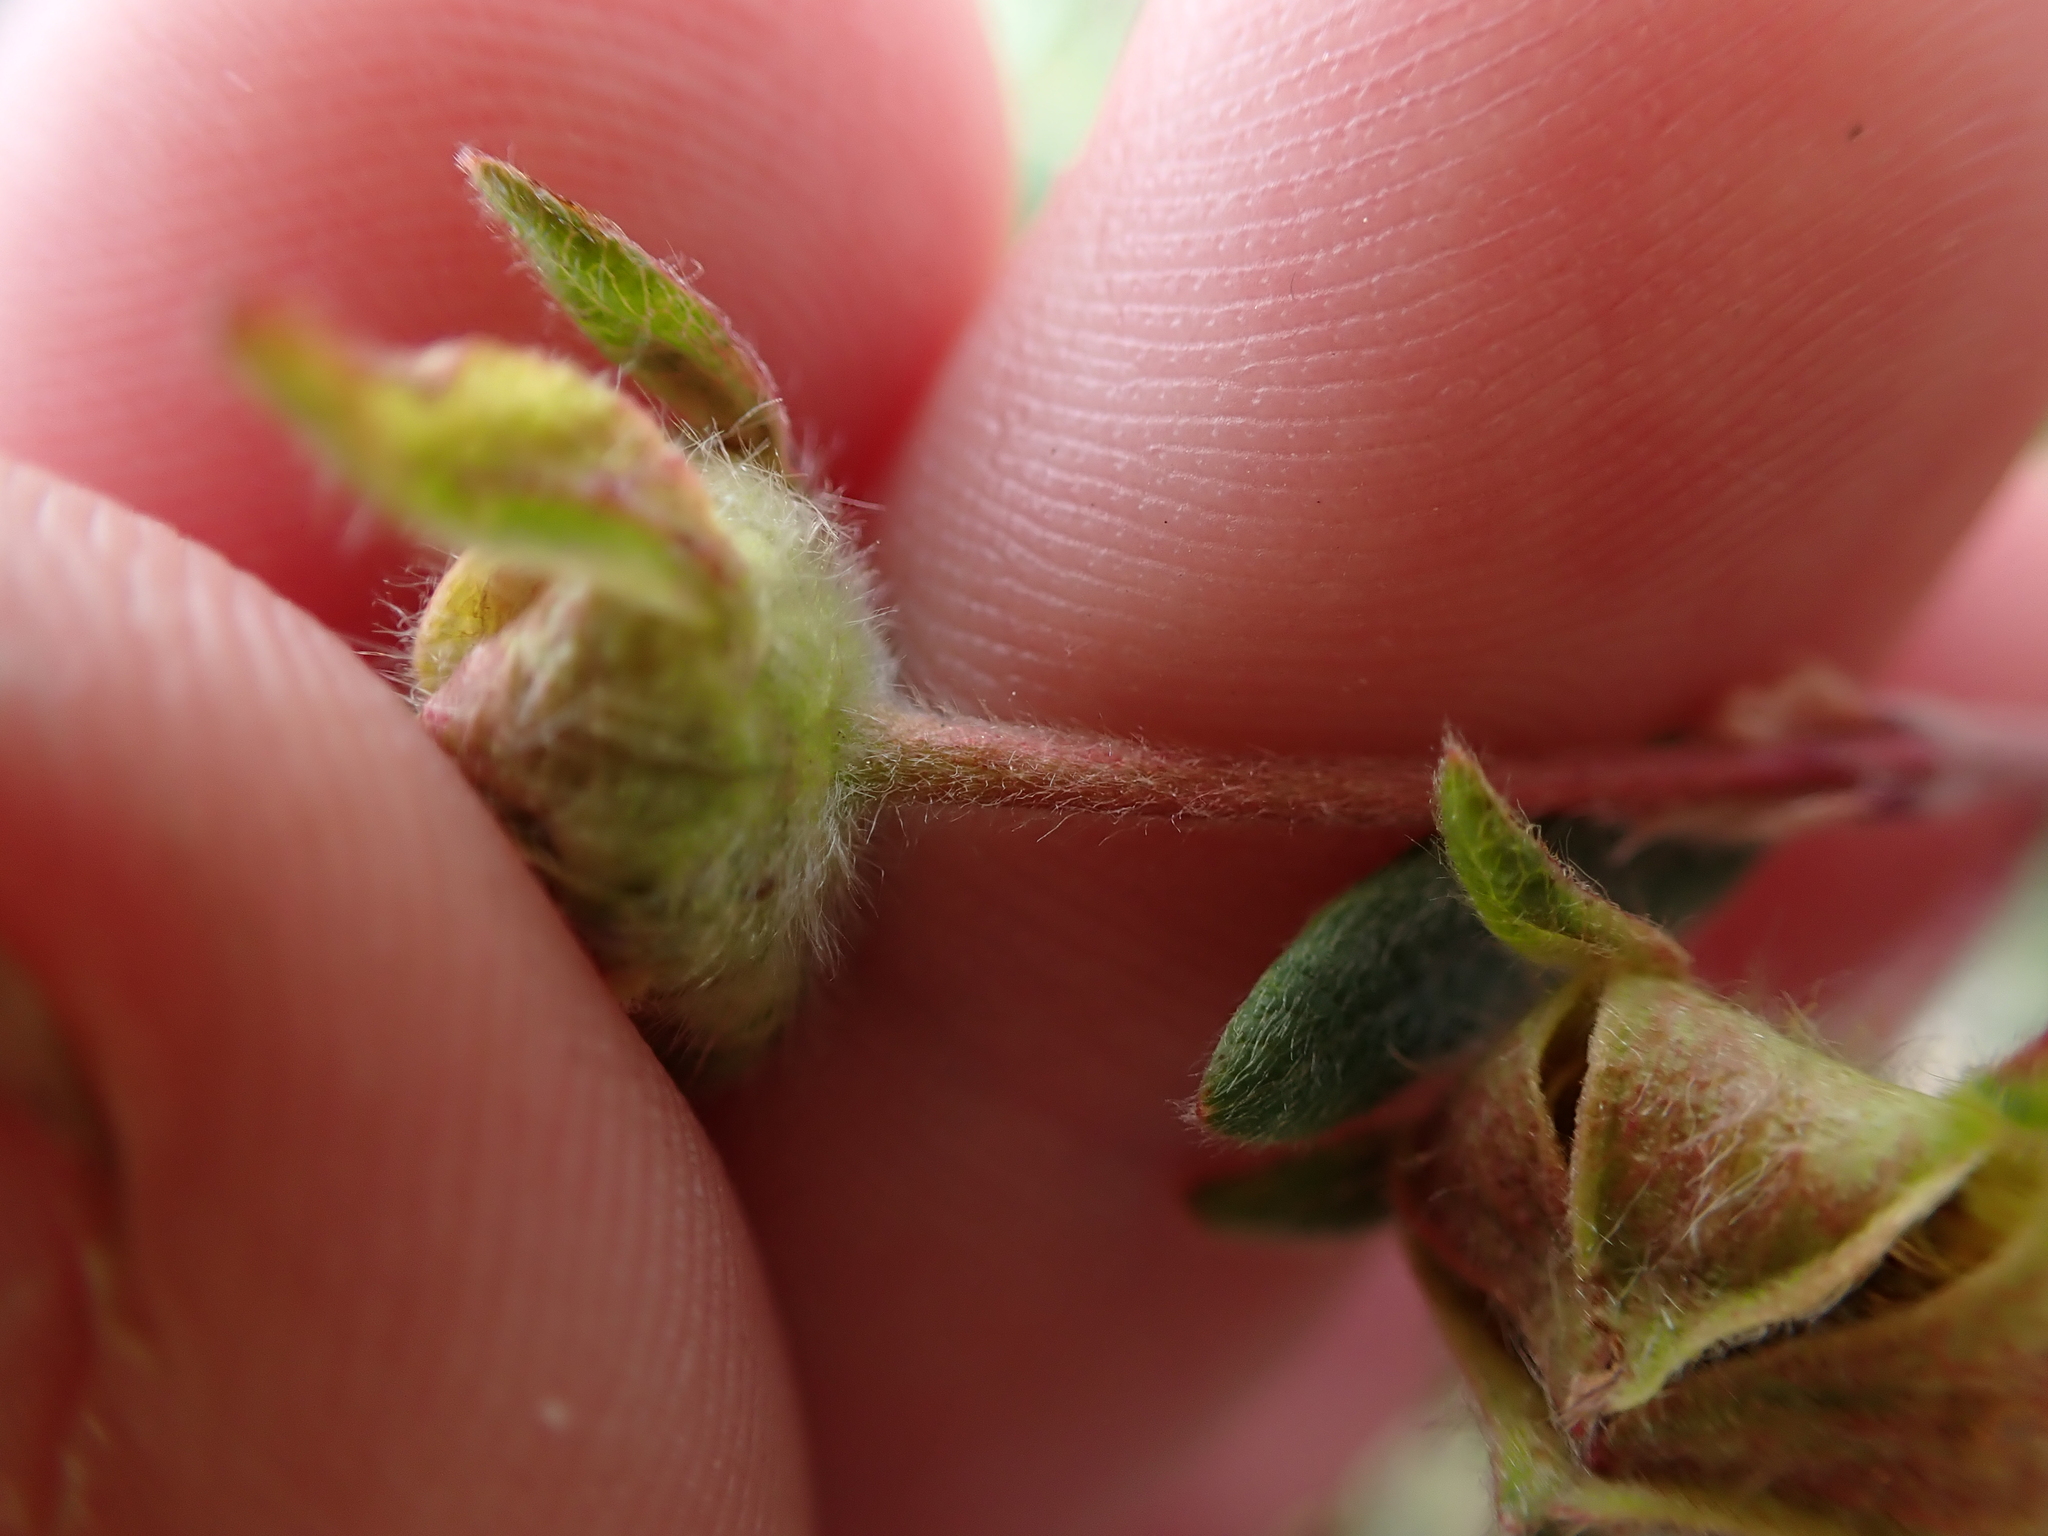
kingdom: Plantae
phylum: Tracheophyta
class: Magnoliopsida
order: Rosales
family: Rosaceae
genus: Dasiphora
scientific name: Dasiphora fruticosa
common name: Shrubby cinquefoil
